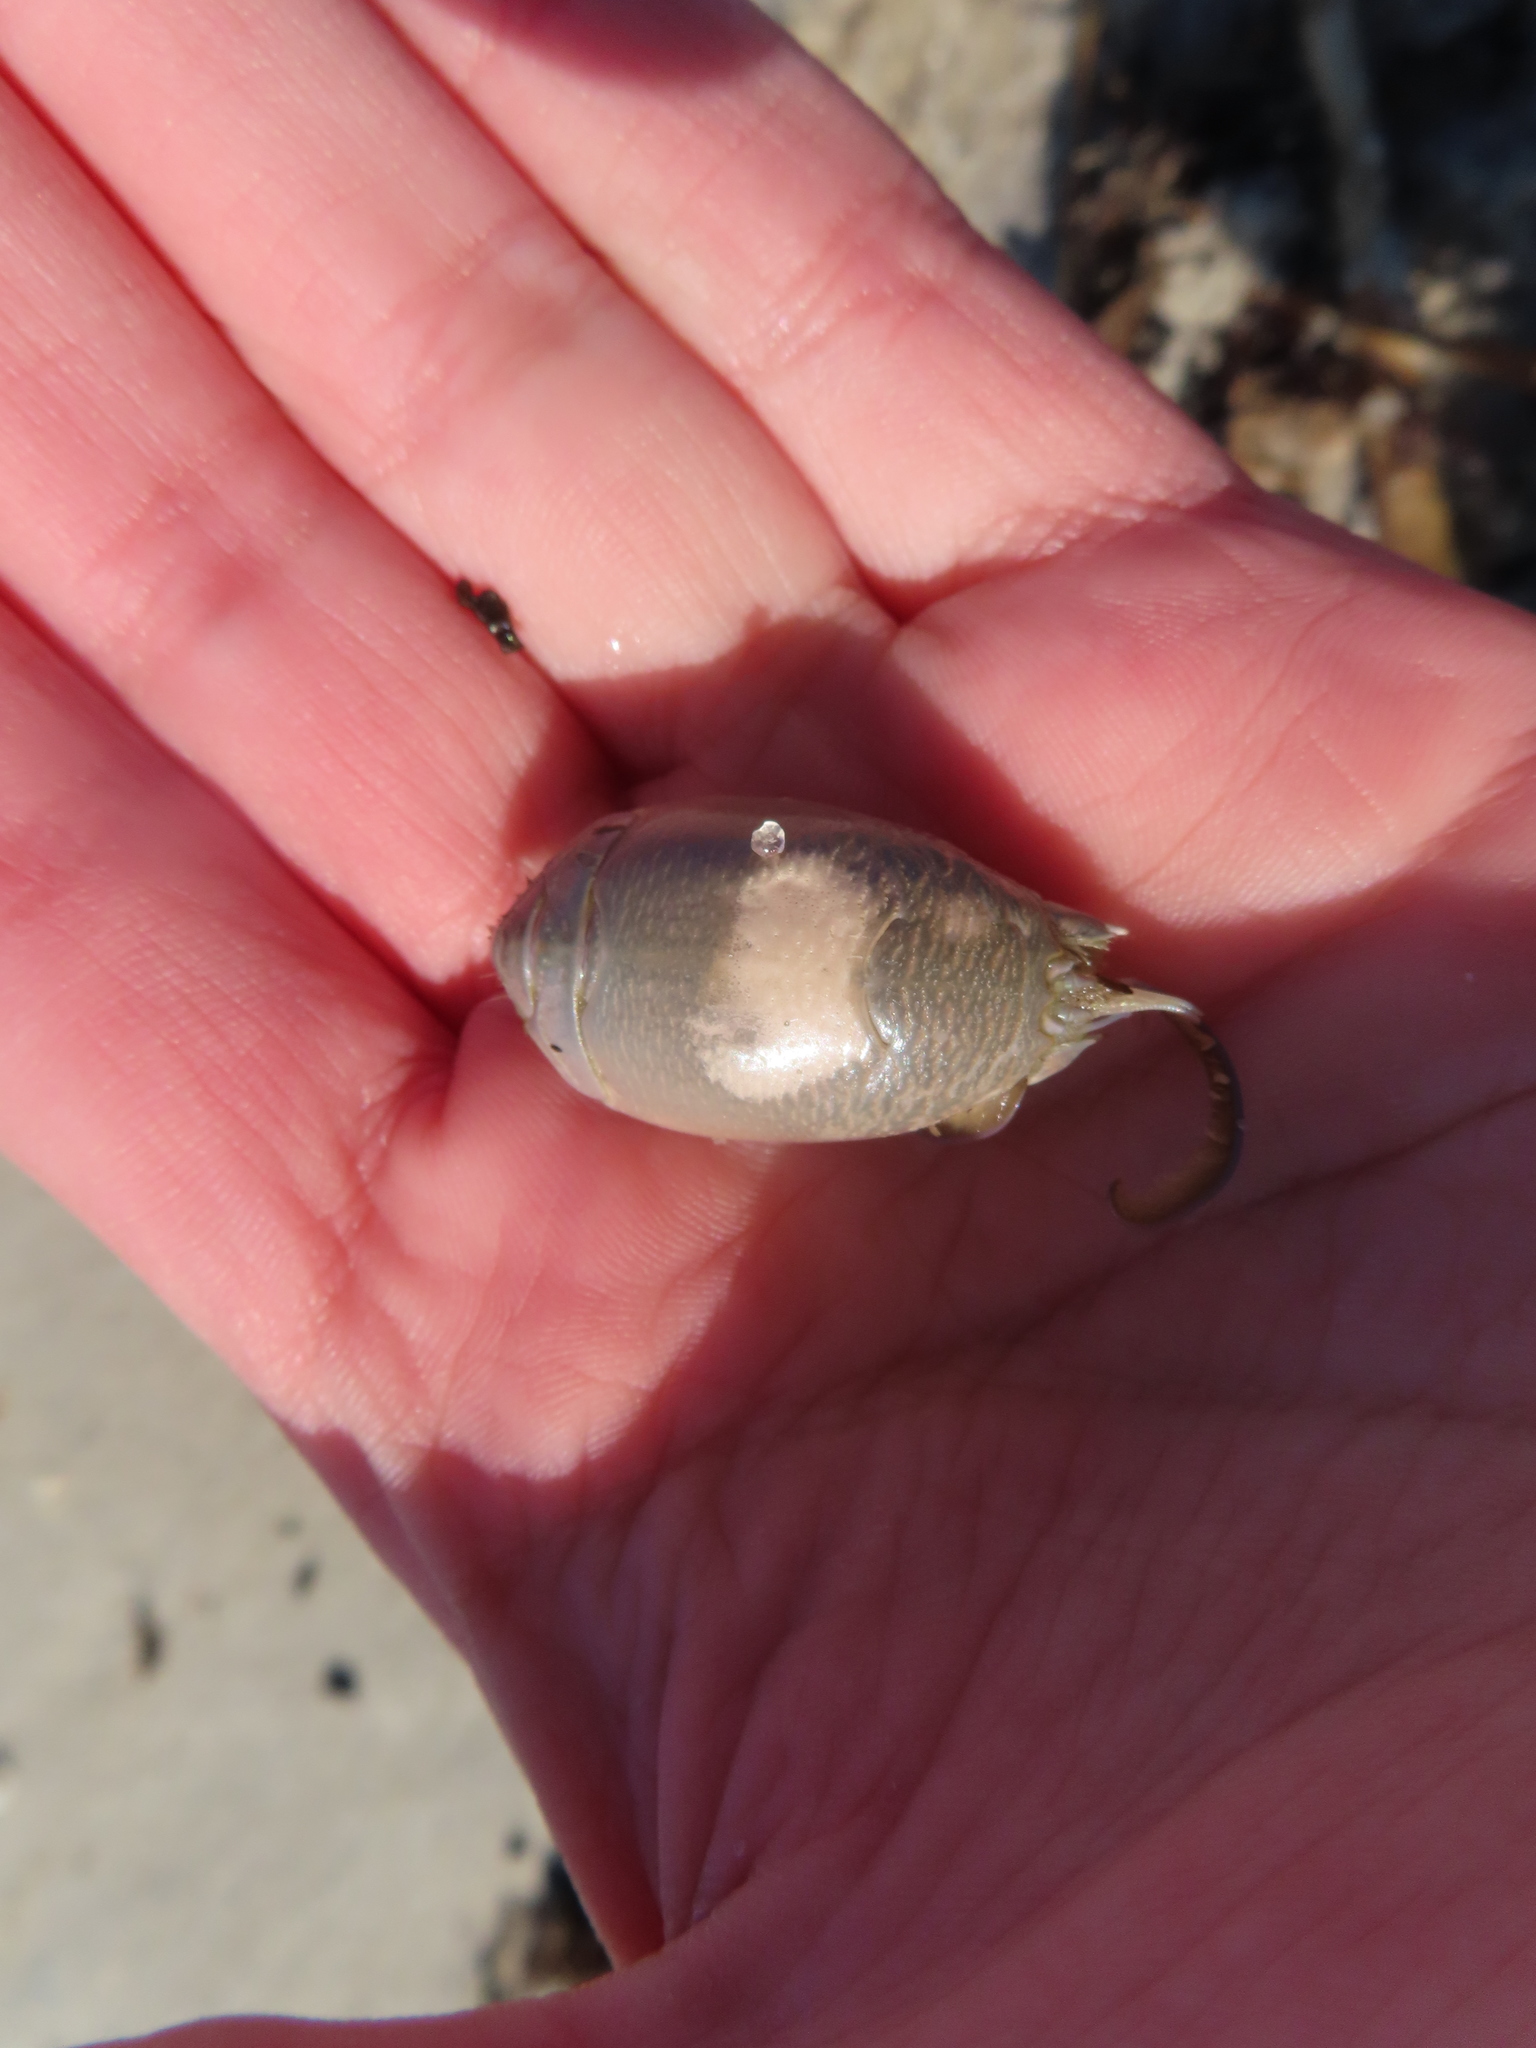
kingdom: Animalia
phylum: Arthropoda
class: Malacostraca
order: Decapoda
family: Hippidae
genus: Emerita
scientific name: Emerita talpoida
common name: Atlantic sand crab
